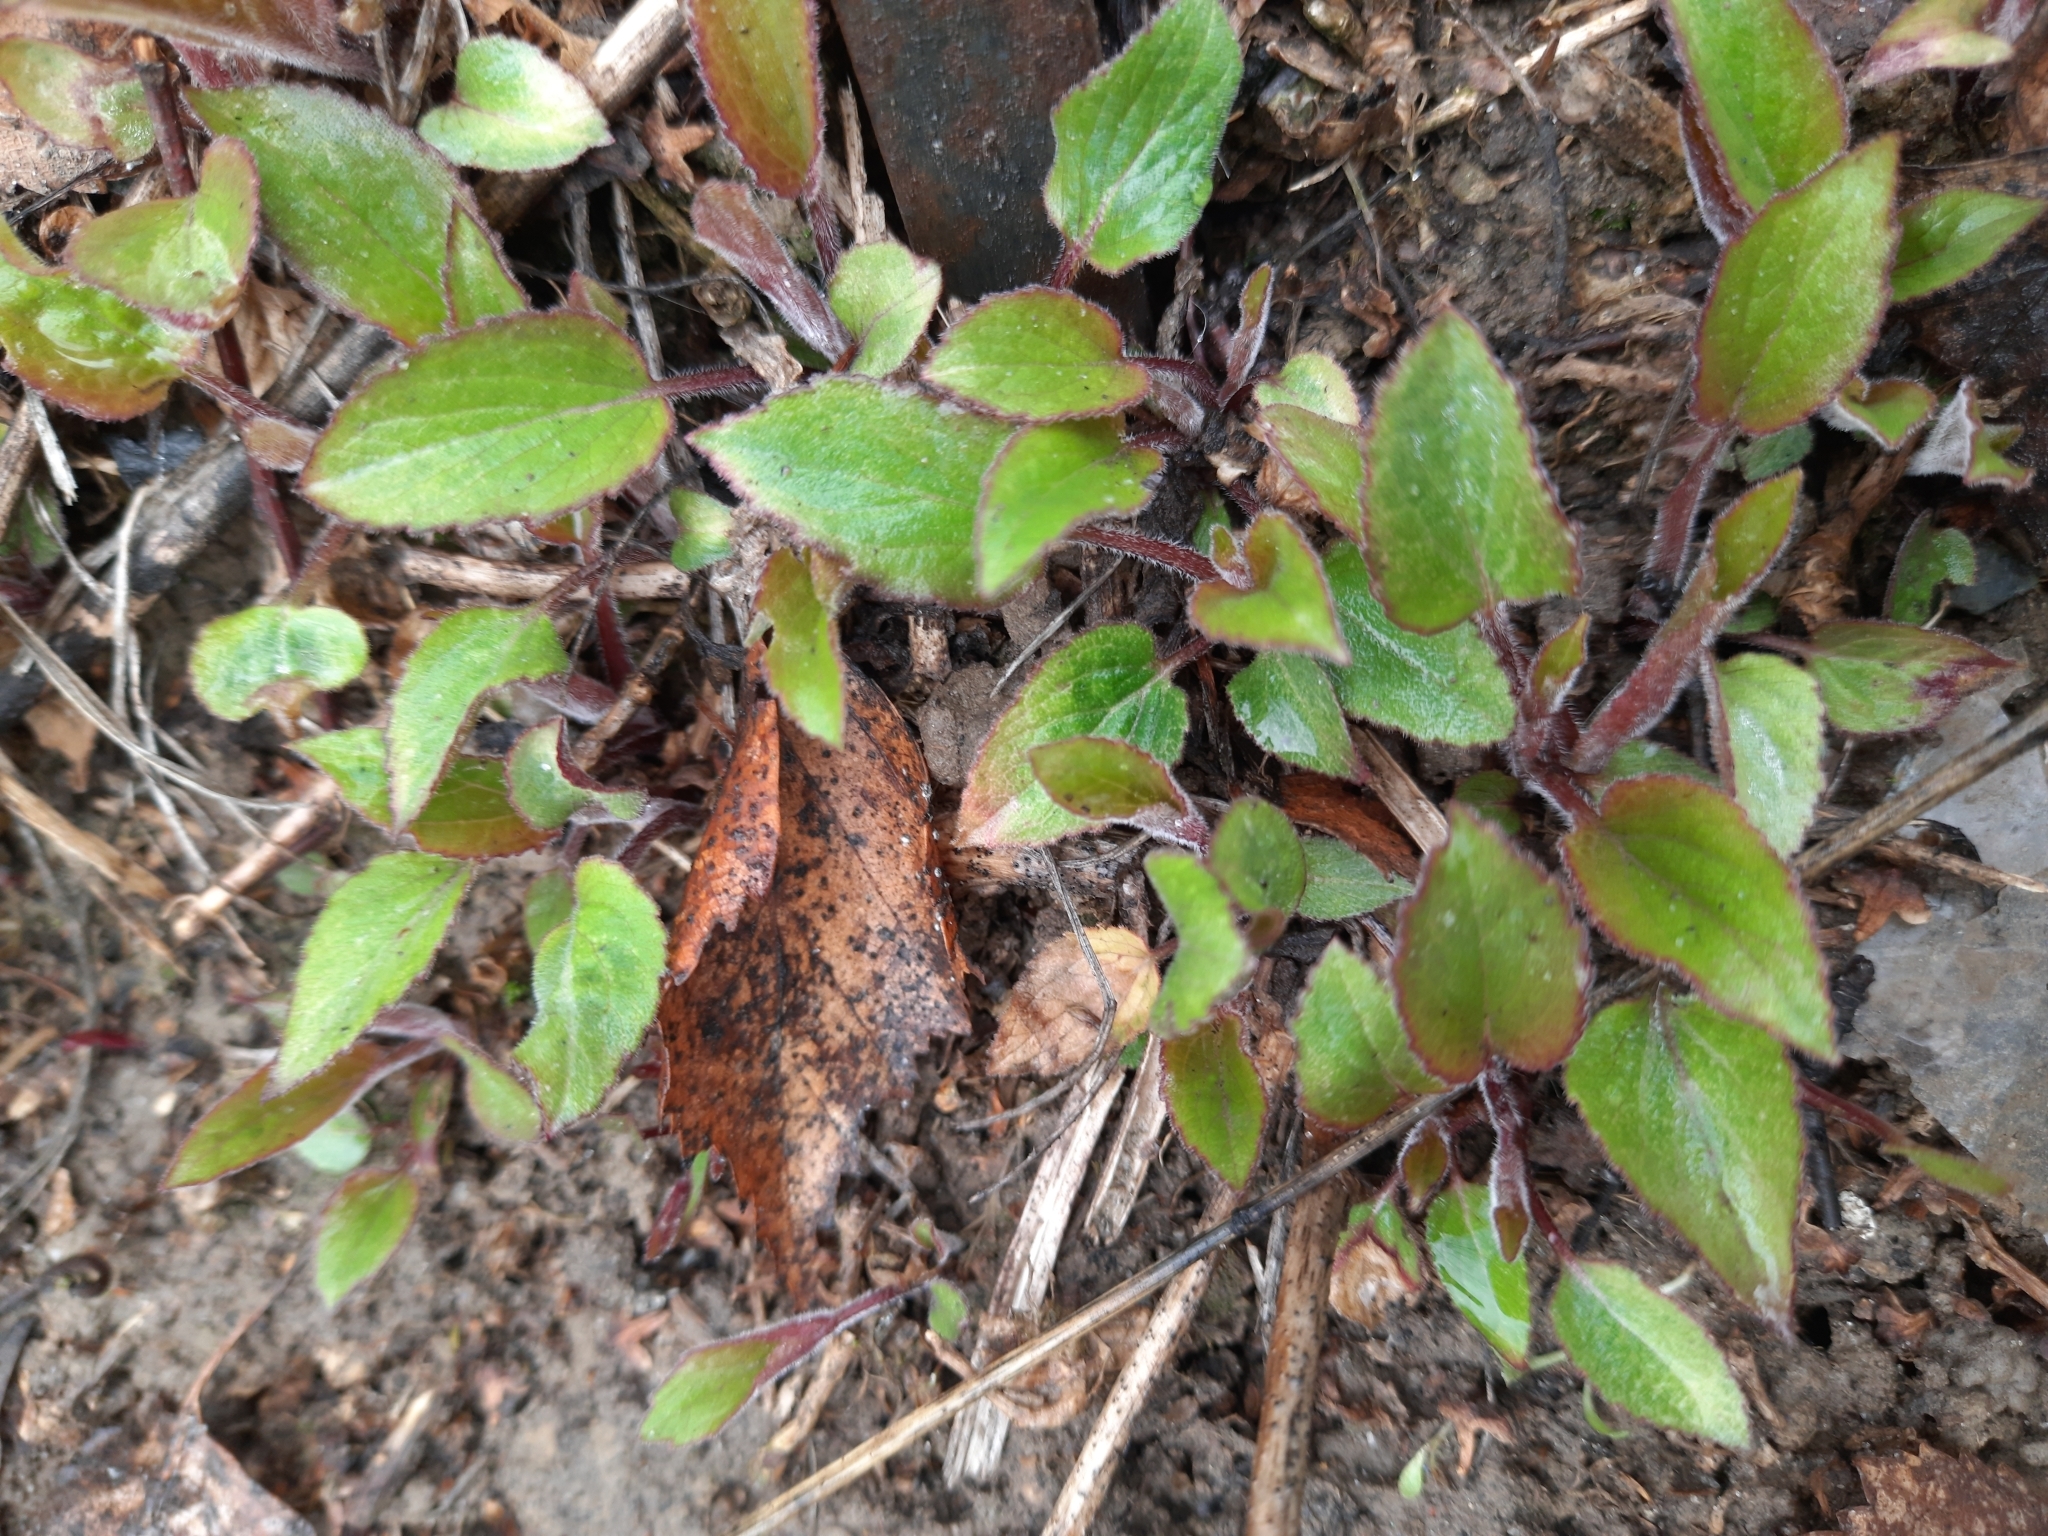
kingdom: Plantae
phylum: Tracheophyta
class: Magnoliopsida
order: Asterales
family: Campanulaceae
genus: Campanula
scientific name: Campanula rapunculoides
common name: Creeping bellflower
